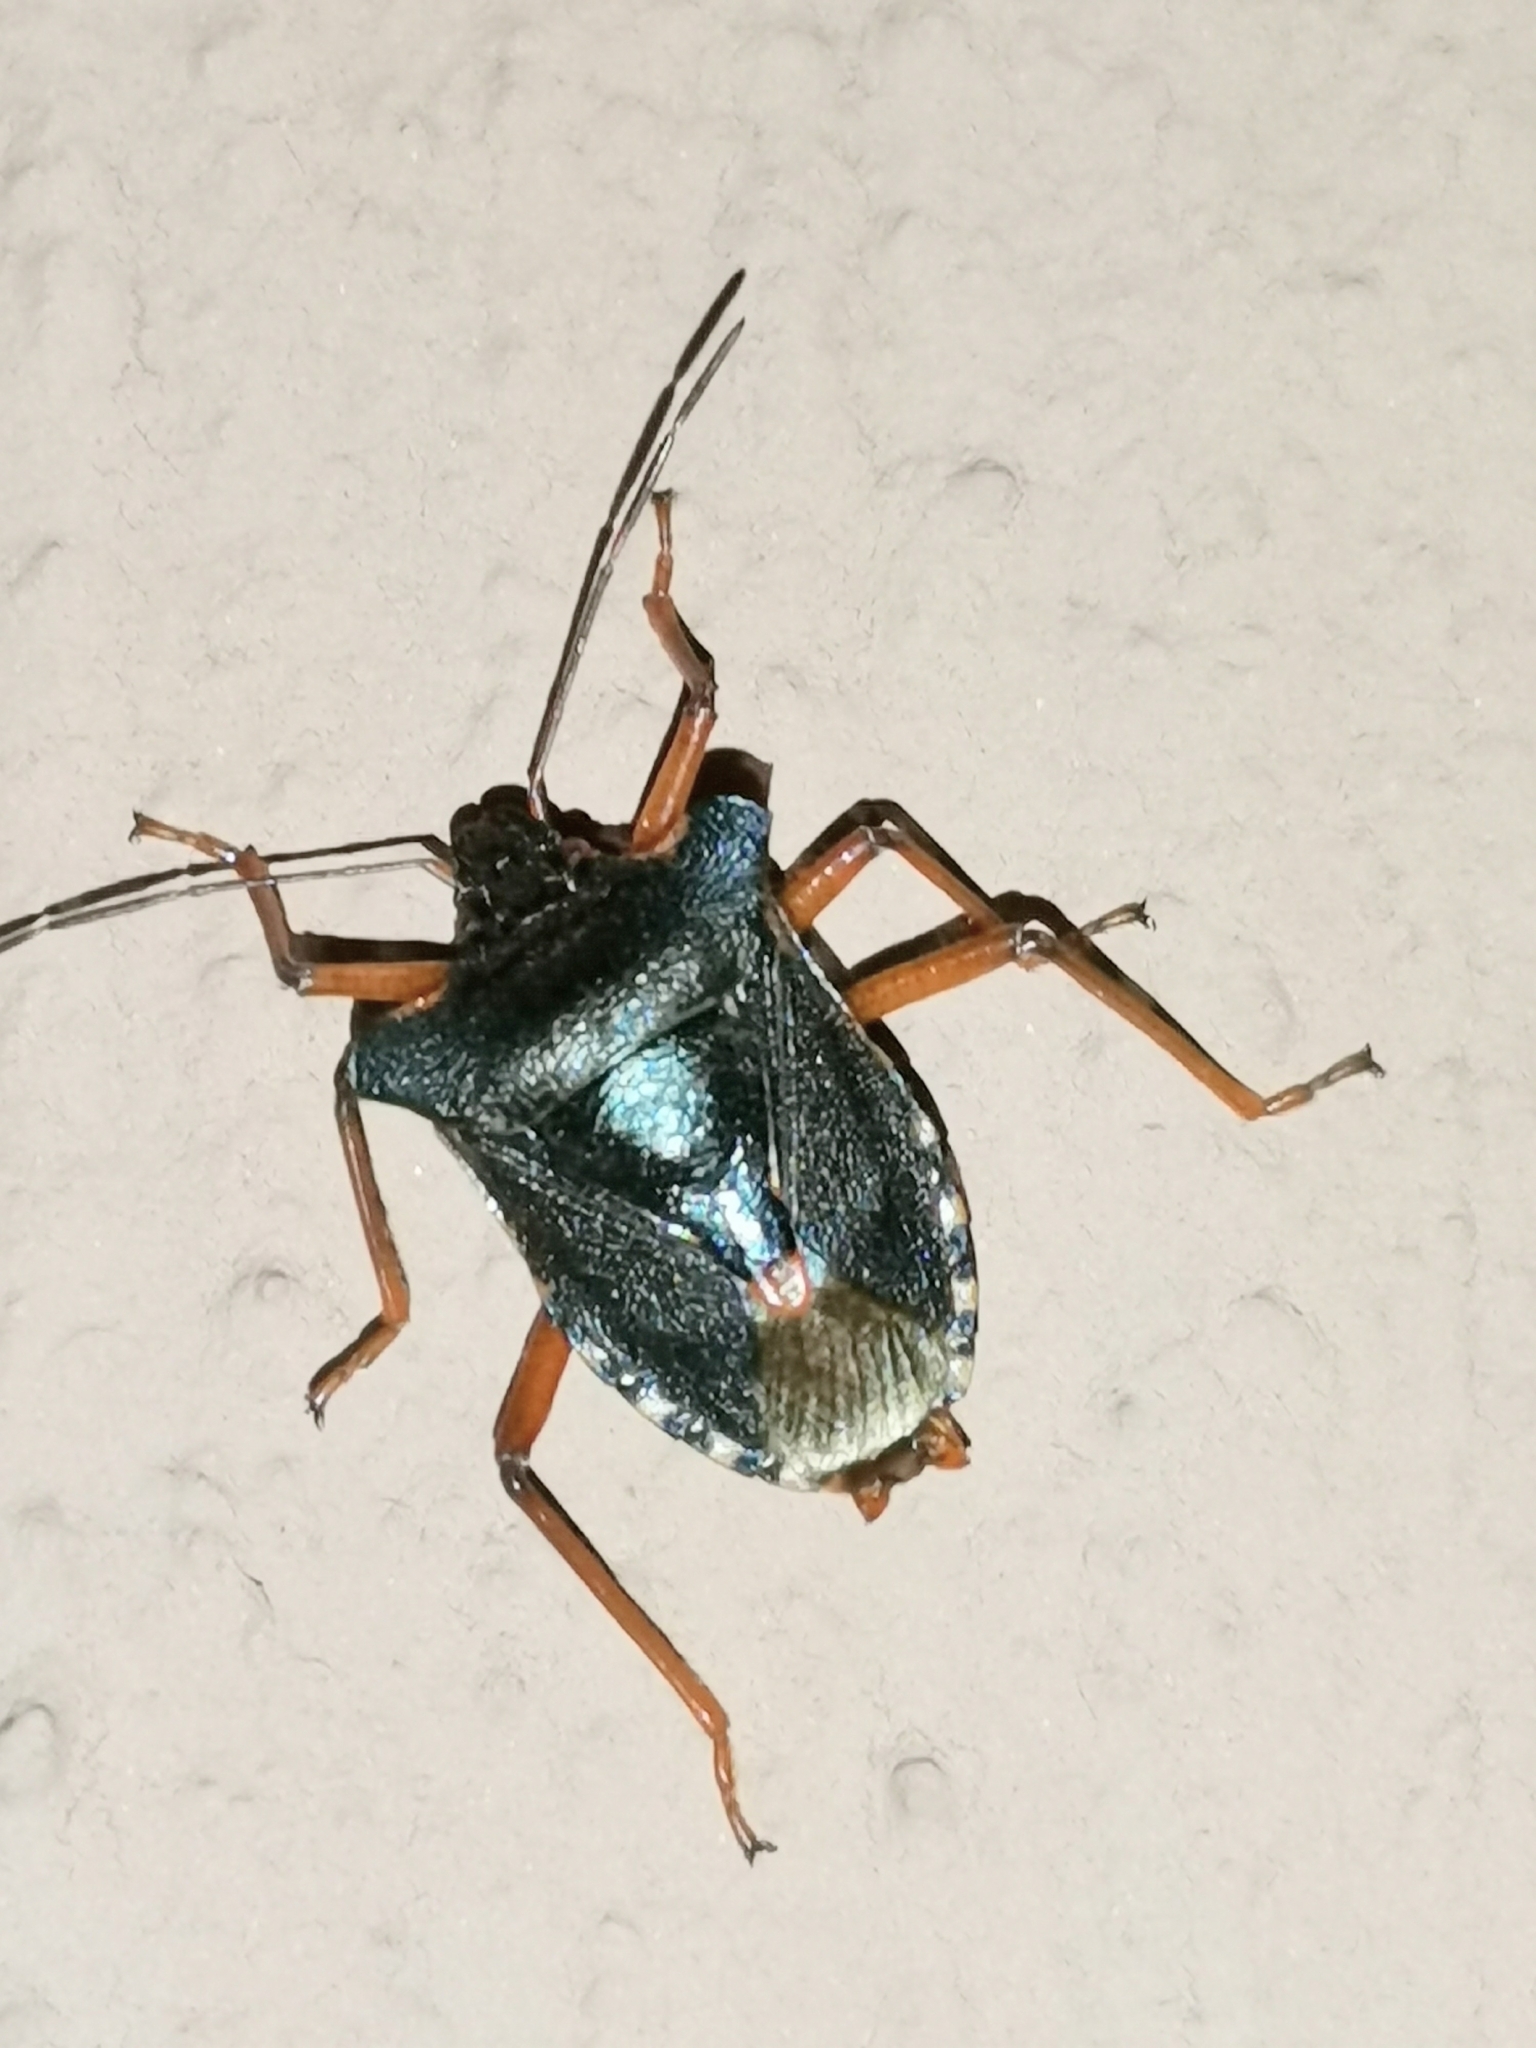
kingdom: Animalia
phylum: Arthropoda
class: Insecta
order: Hemiptera
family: Pentatomidae
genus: Pentatoma
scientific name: Pentatoma rufipes
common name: Forest bug
